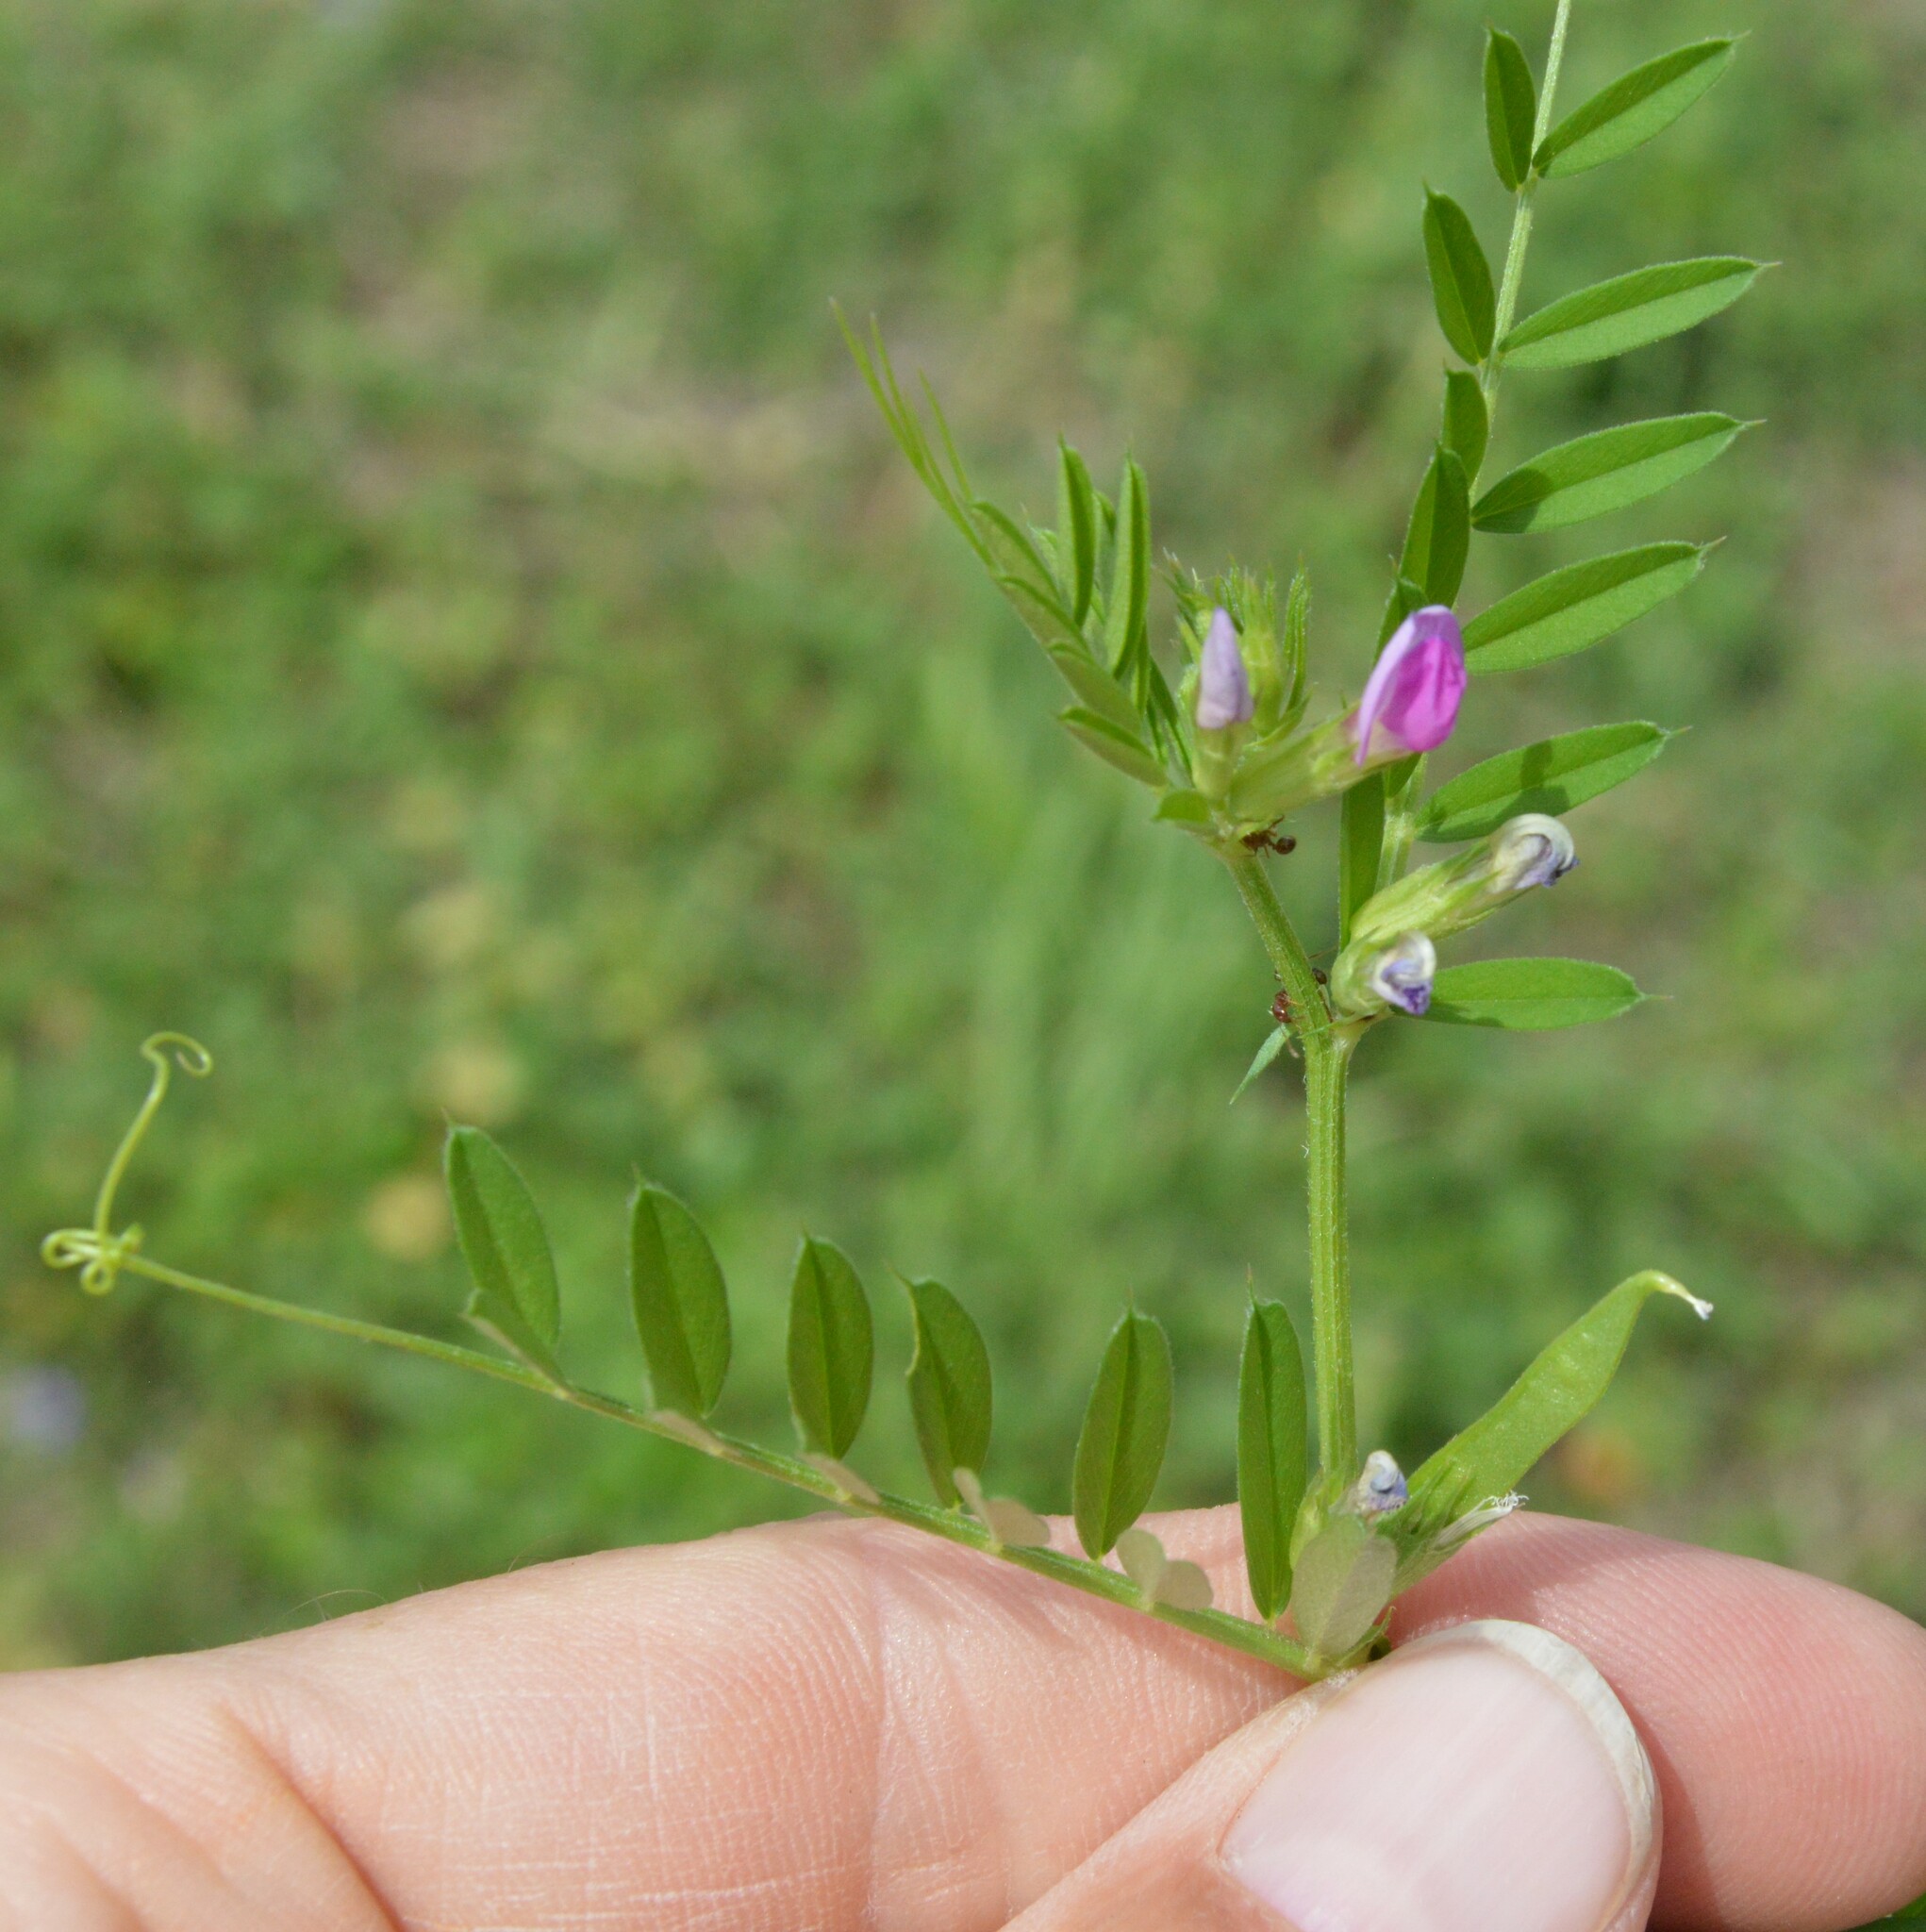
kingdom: Plantae
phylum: Tracheophyta
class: Magnoliopsida
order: Fabales
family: Fabaceae
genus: Vicia
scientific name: Vicia sativa
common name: Garden vetch
